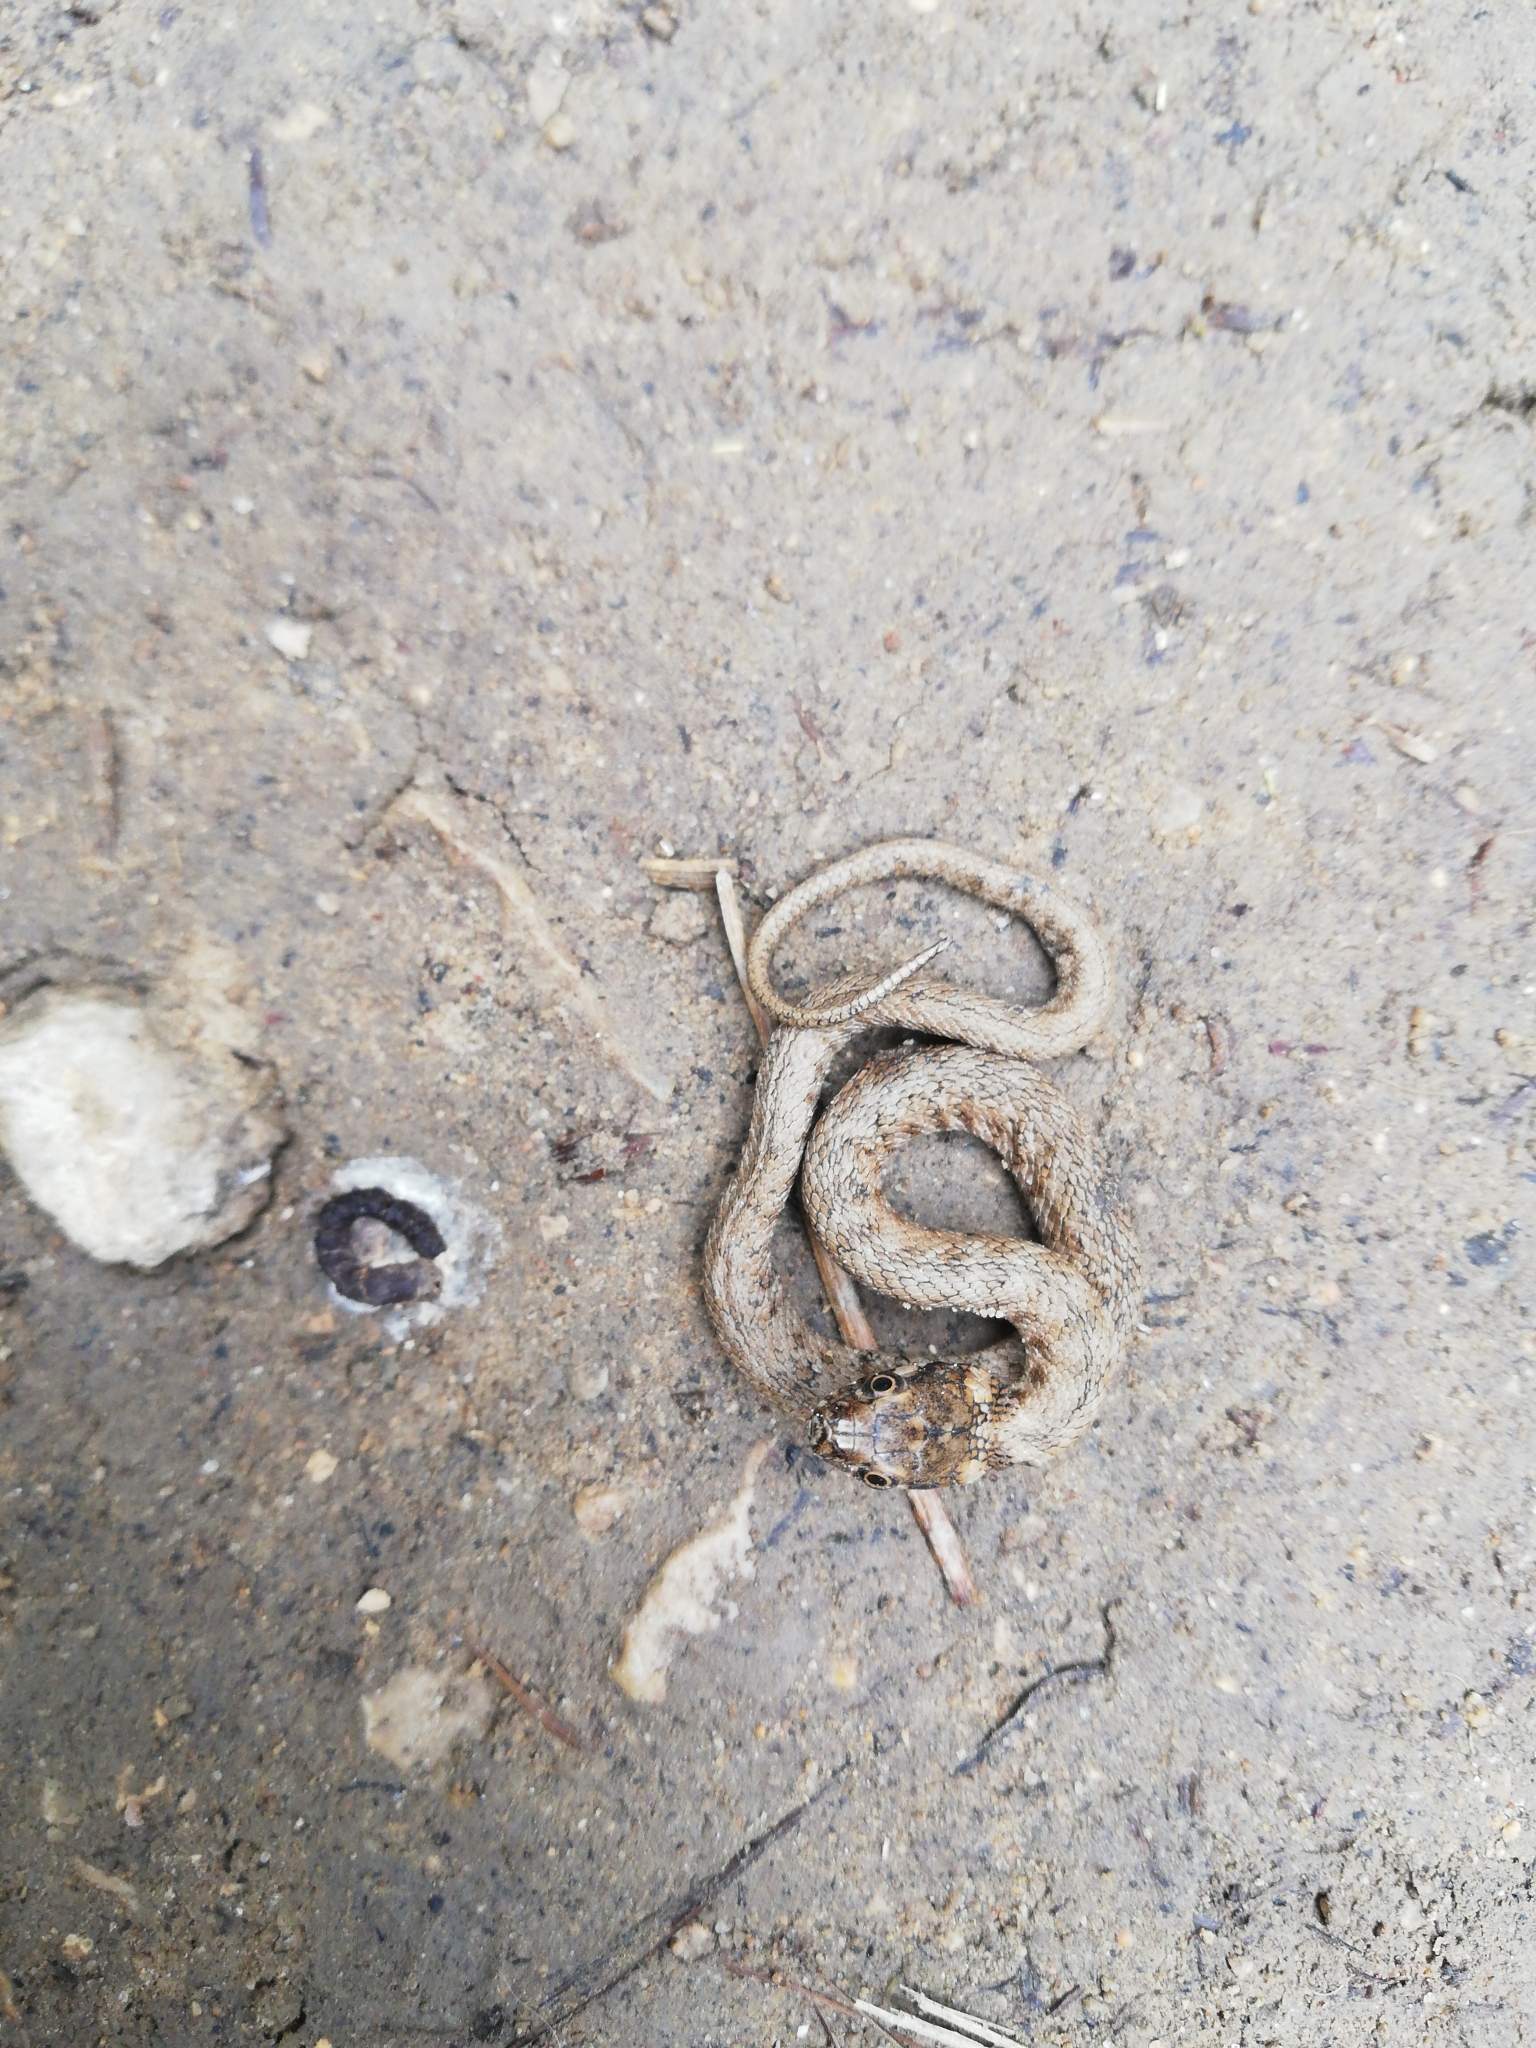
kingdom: Animalia
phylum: Chordata
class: Squamata
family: Colubridae
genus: Natrix
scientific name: Natrix maura
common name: Viperine water snake
